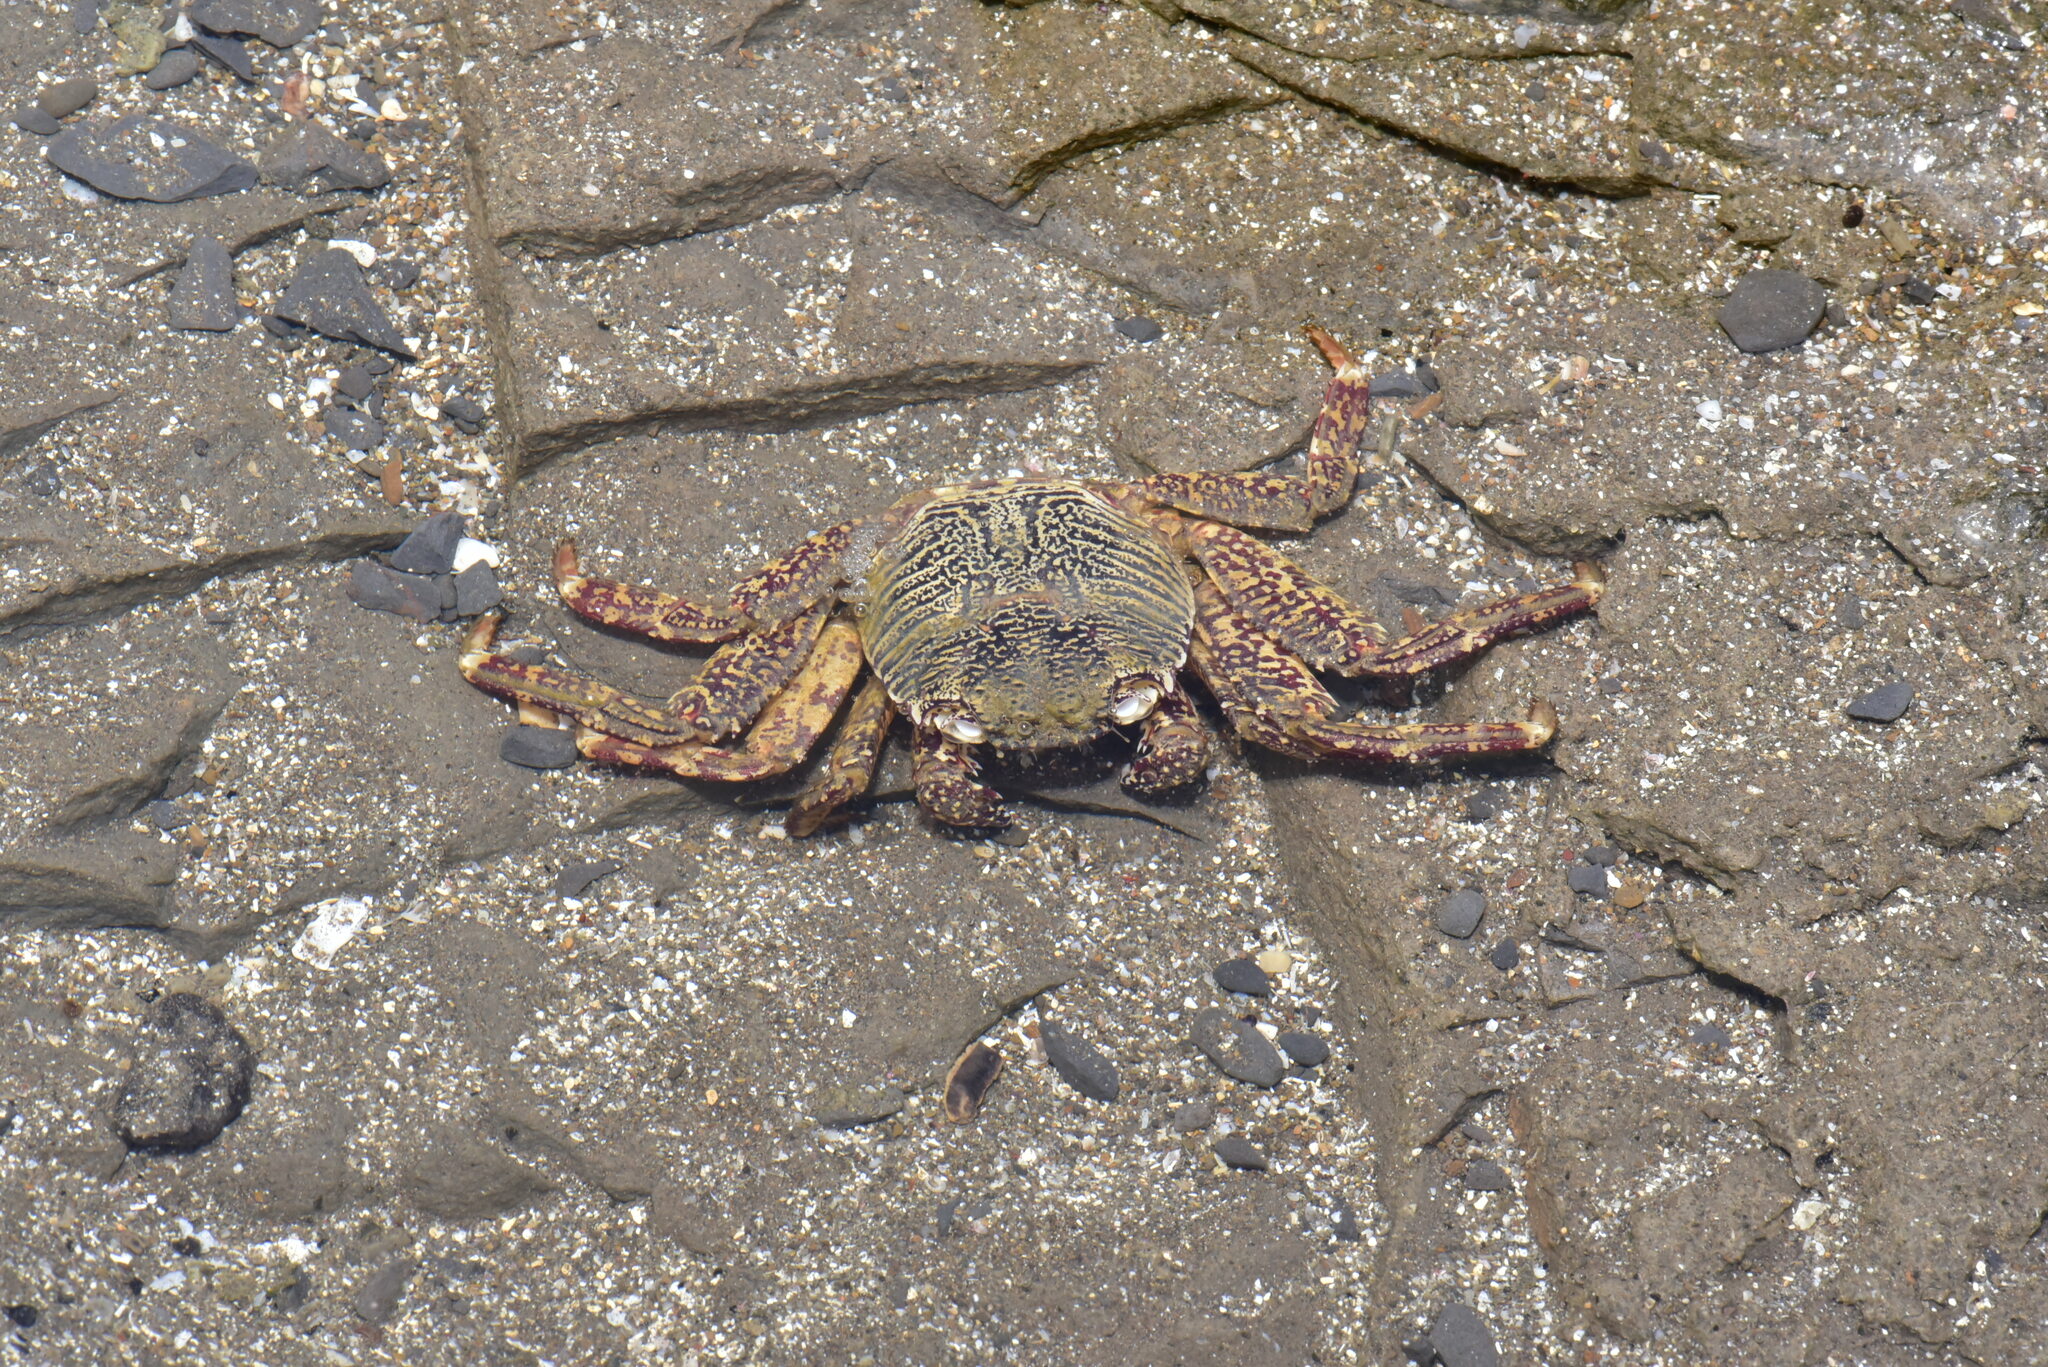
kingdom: Animalia
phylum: Arthropoda
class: Malacostraca
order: Decapoda
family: Grapsidae
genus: Grapsus
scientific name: Grapsus albolineatus
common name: Mottled lightfoot crab
